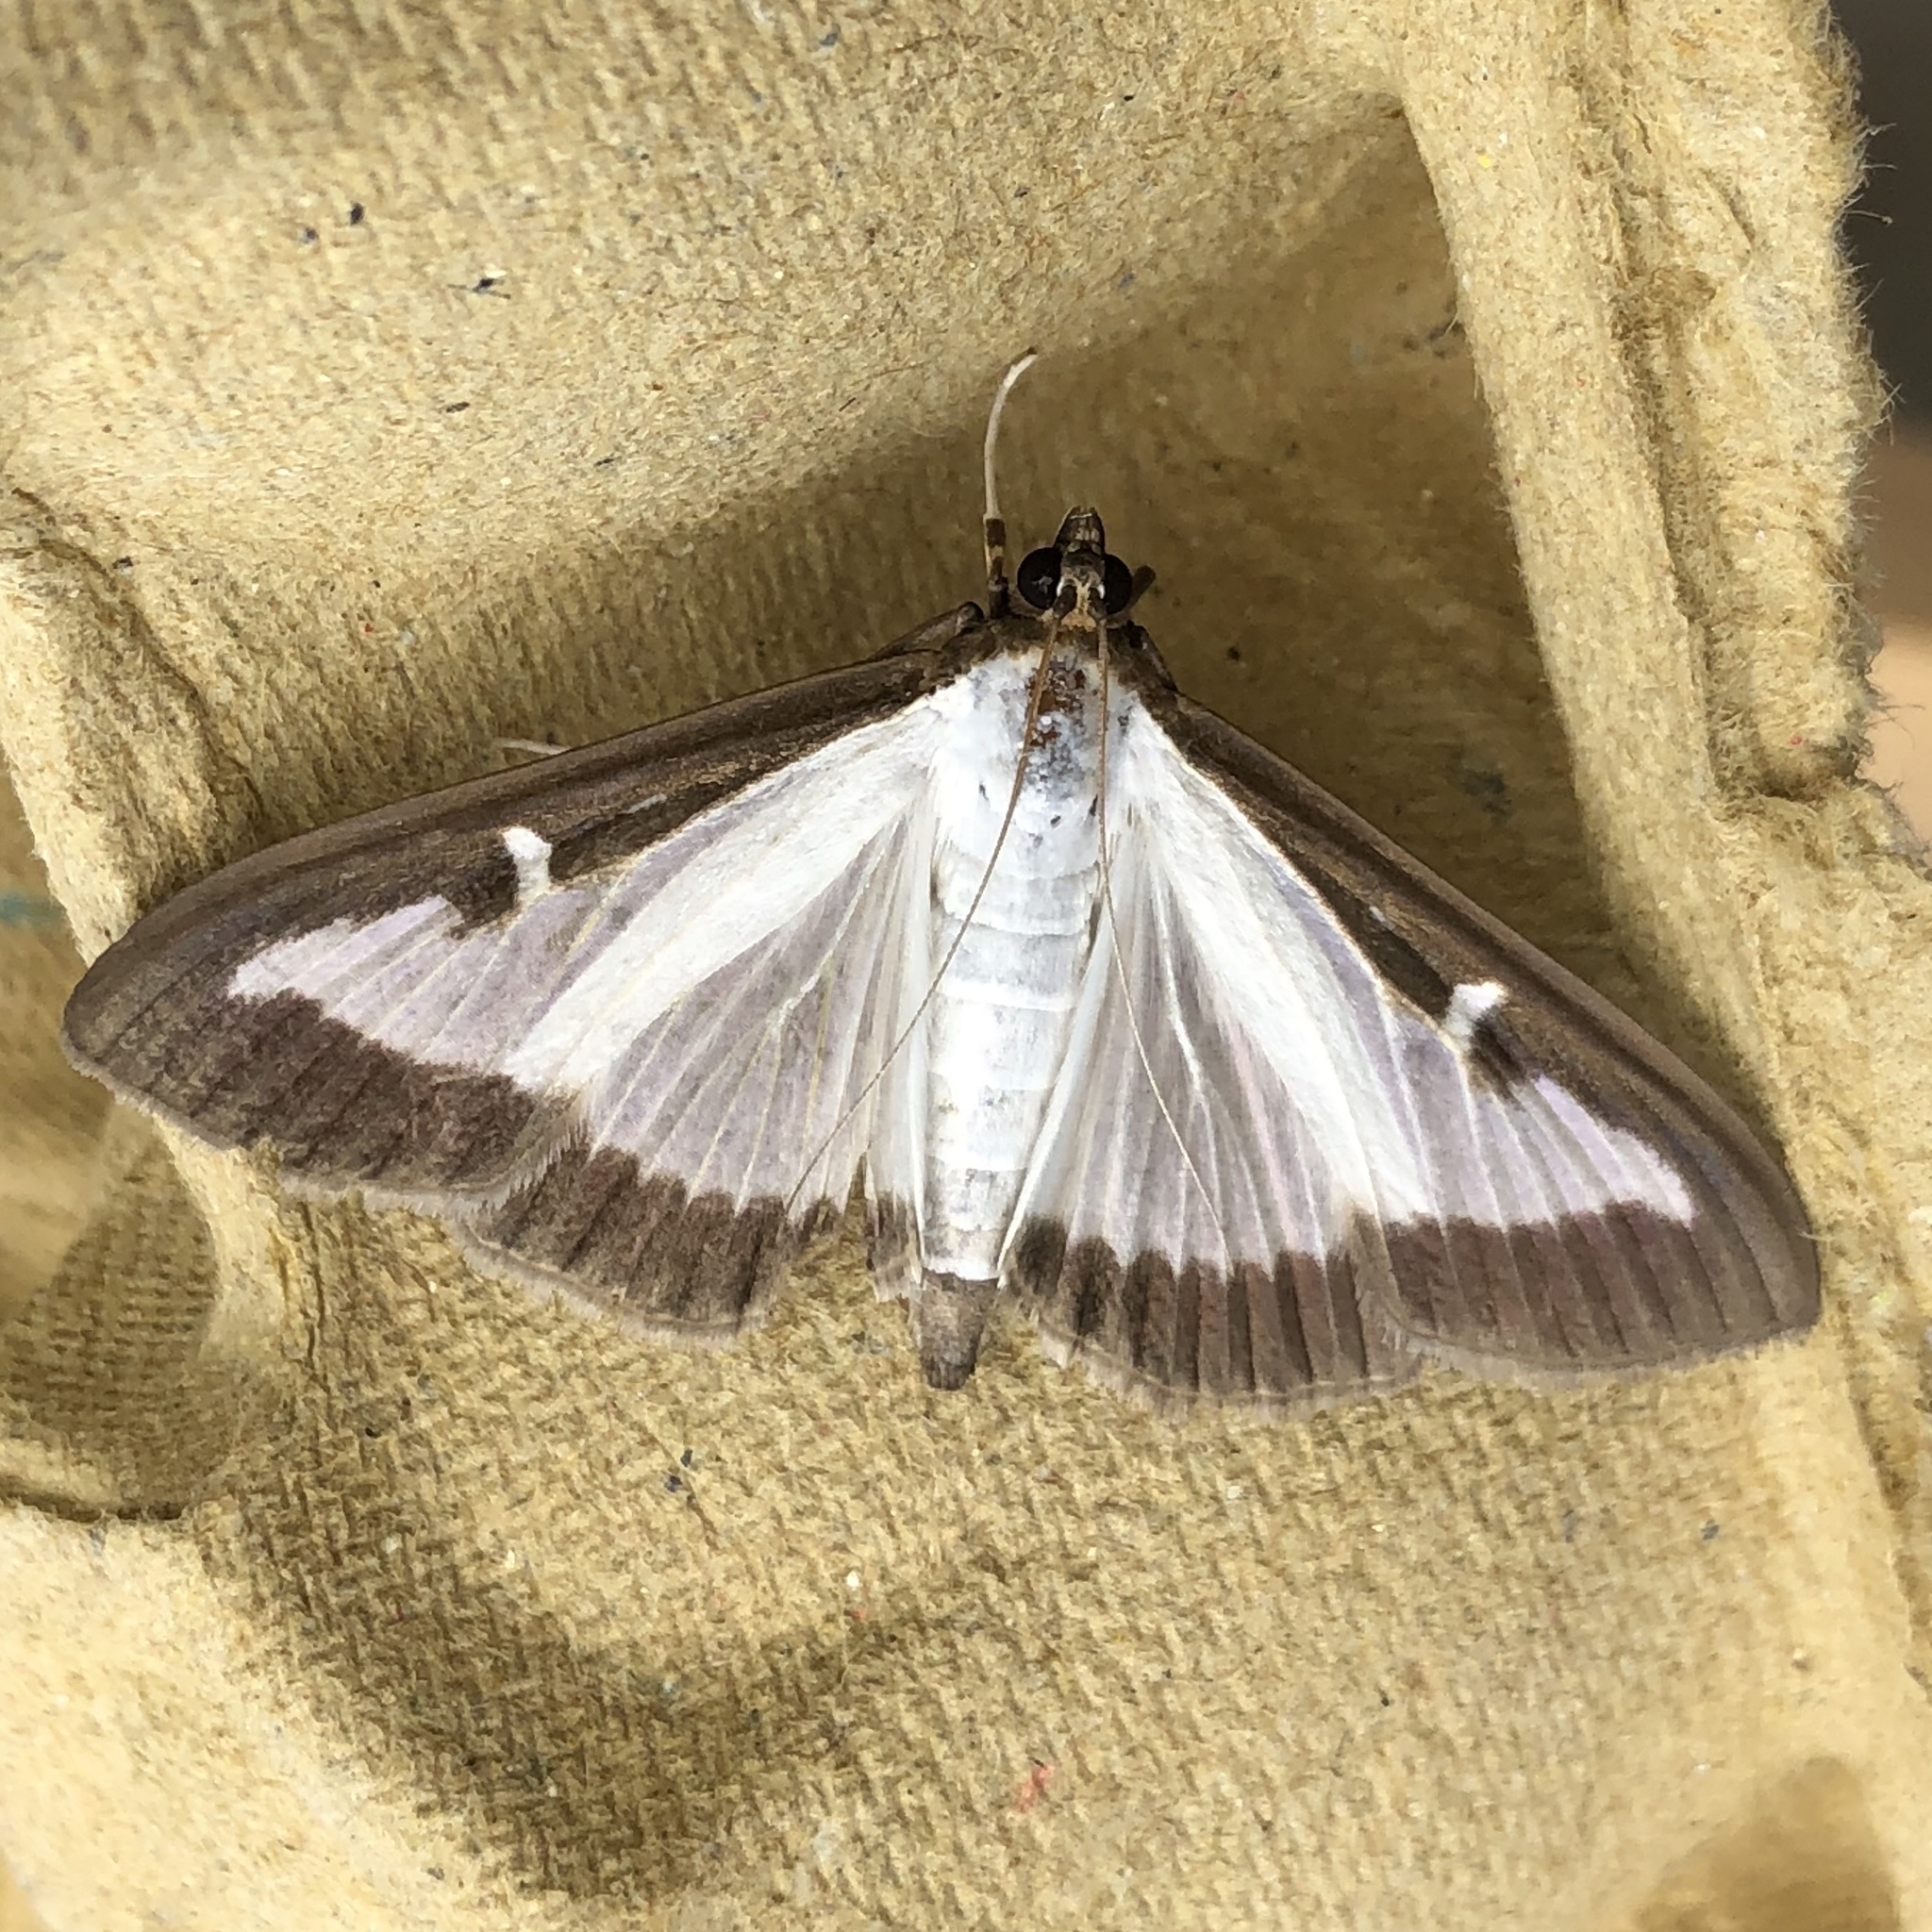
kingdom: Animalia
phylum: Arthropoda
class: Insecta
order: Lepidoptera
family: Crambidae
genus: Cydalima
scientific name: Cydalima perspectalis
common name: Box tree moth
